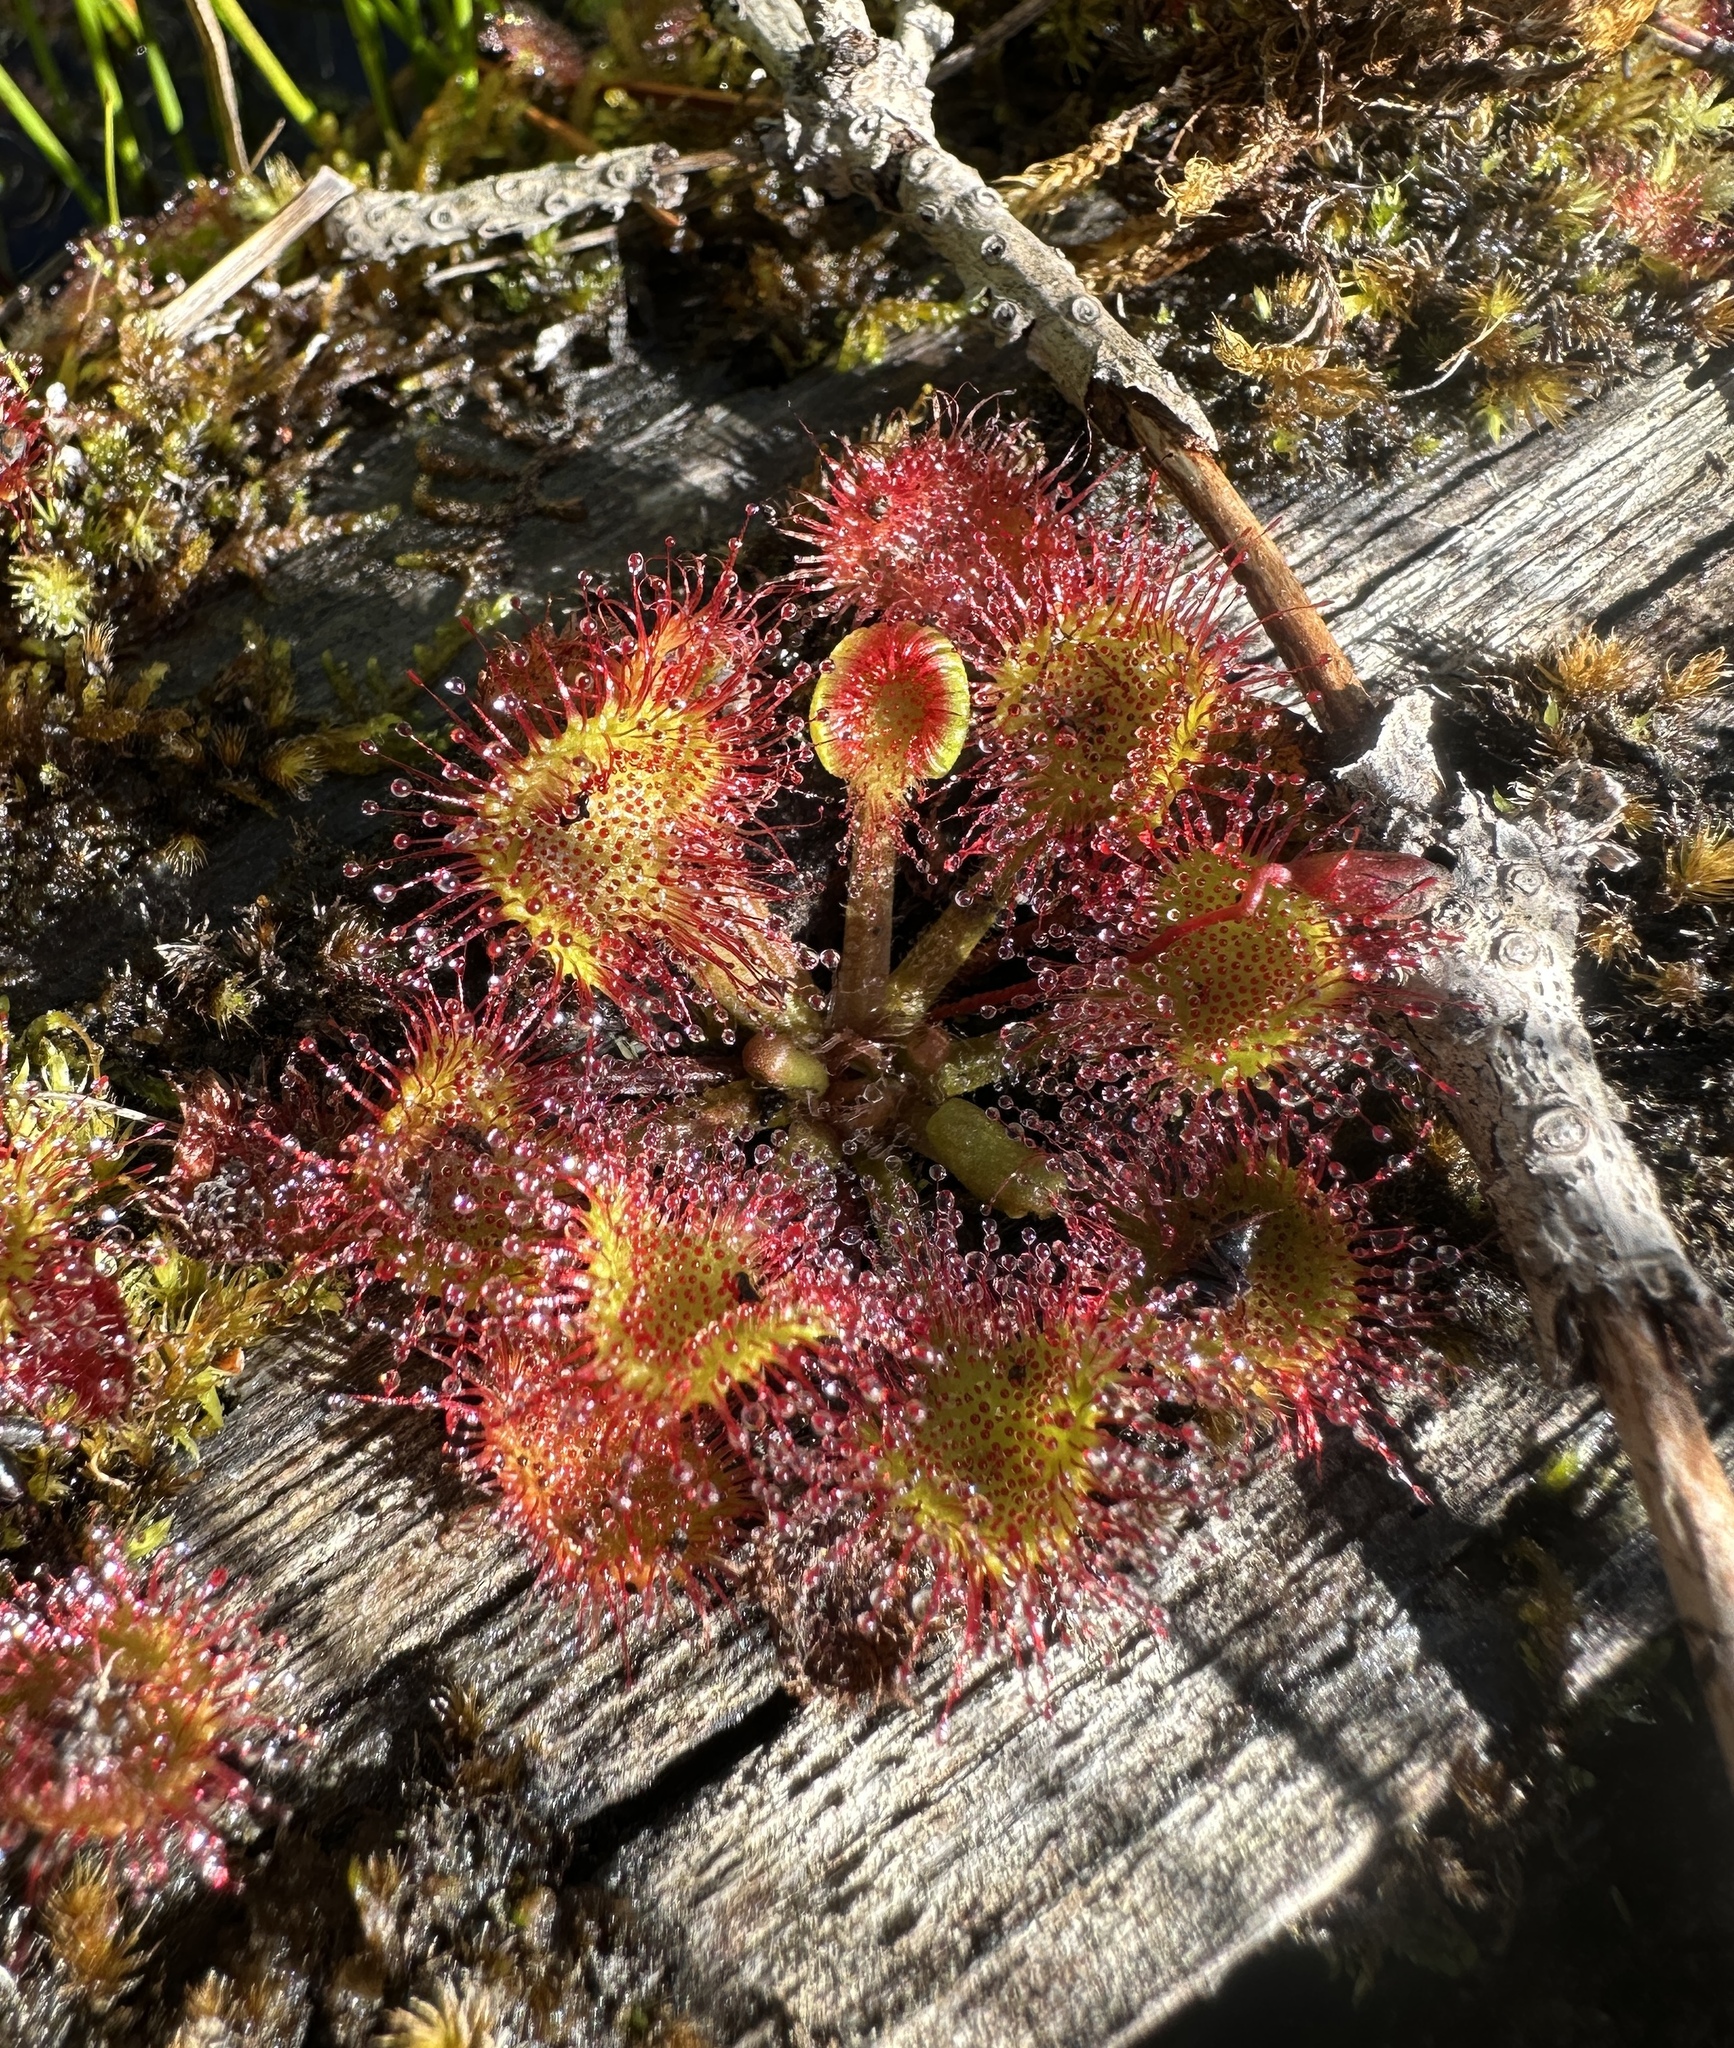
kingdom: Plantae
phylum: Tracheophyta
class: Magnoliopsida
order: Caryophyllales
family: Droseraceae
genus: Drosera
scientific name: Drosera rotundifolia
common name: Round-leaved sundew
